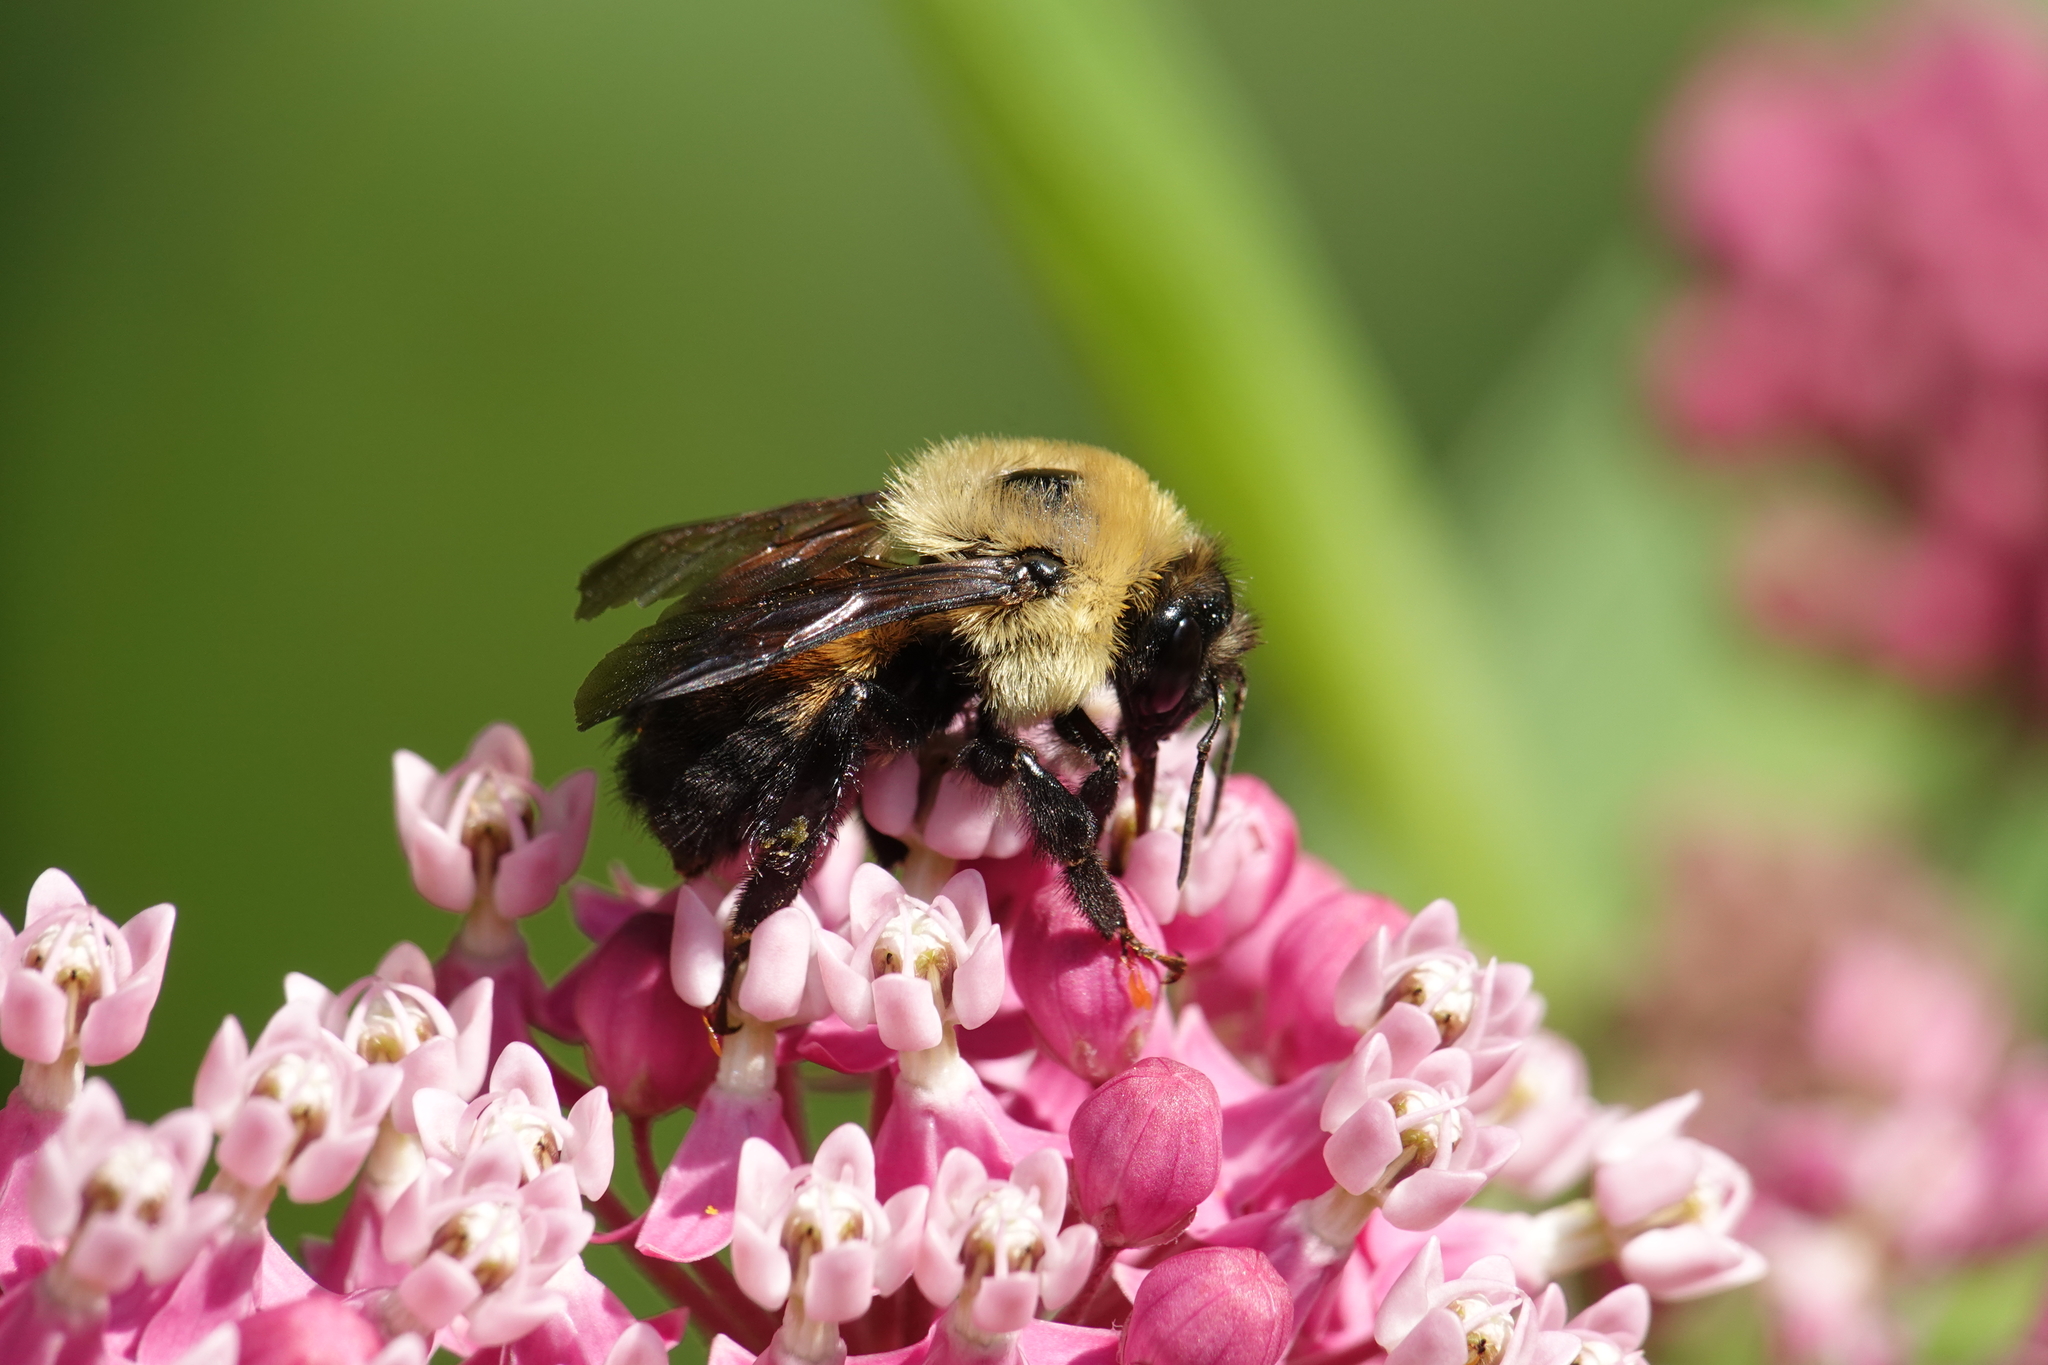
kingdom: Animalia
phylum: Arthropoda
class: Insecta
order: Hymenoptera
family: Apidae
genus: Bombus
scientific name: Bombus griseocollis
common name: Brown-belted bumble bee
